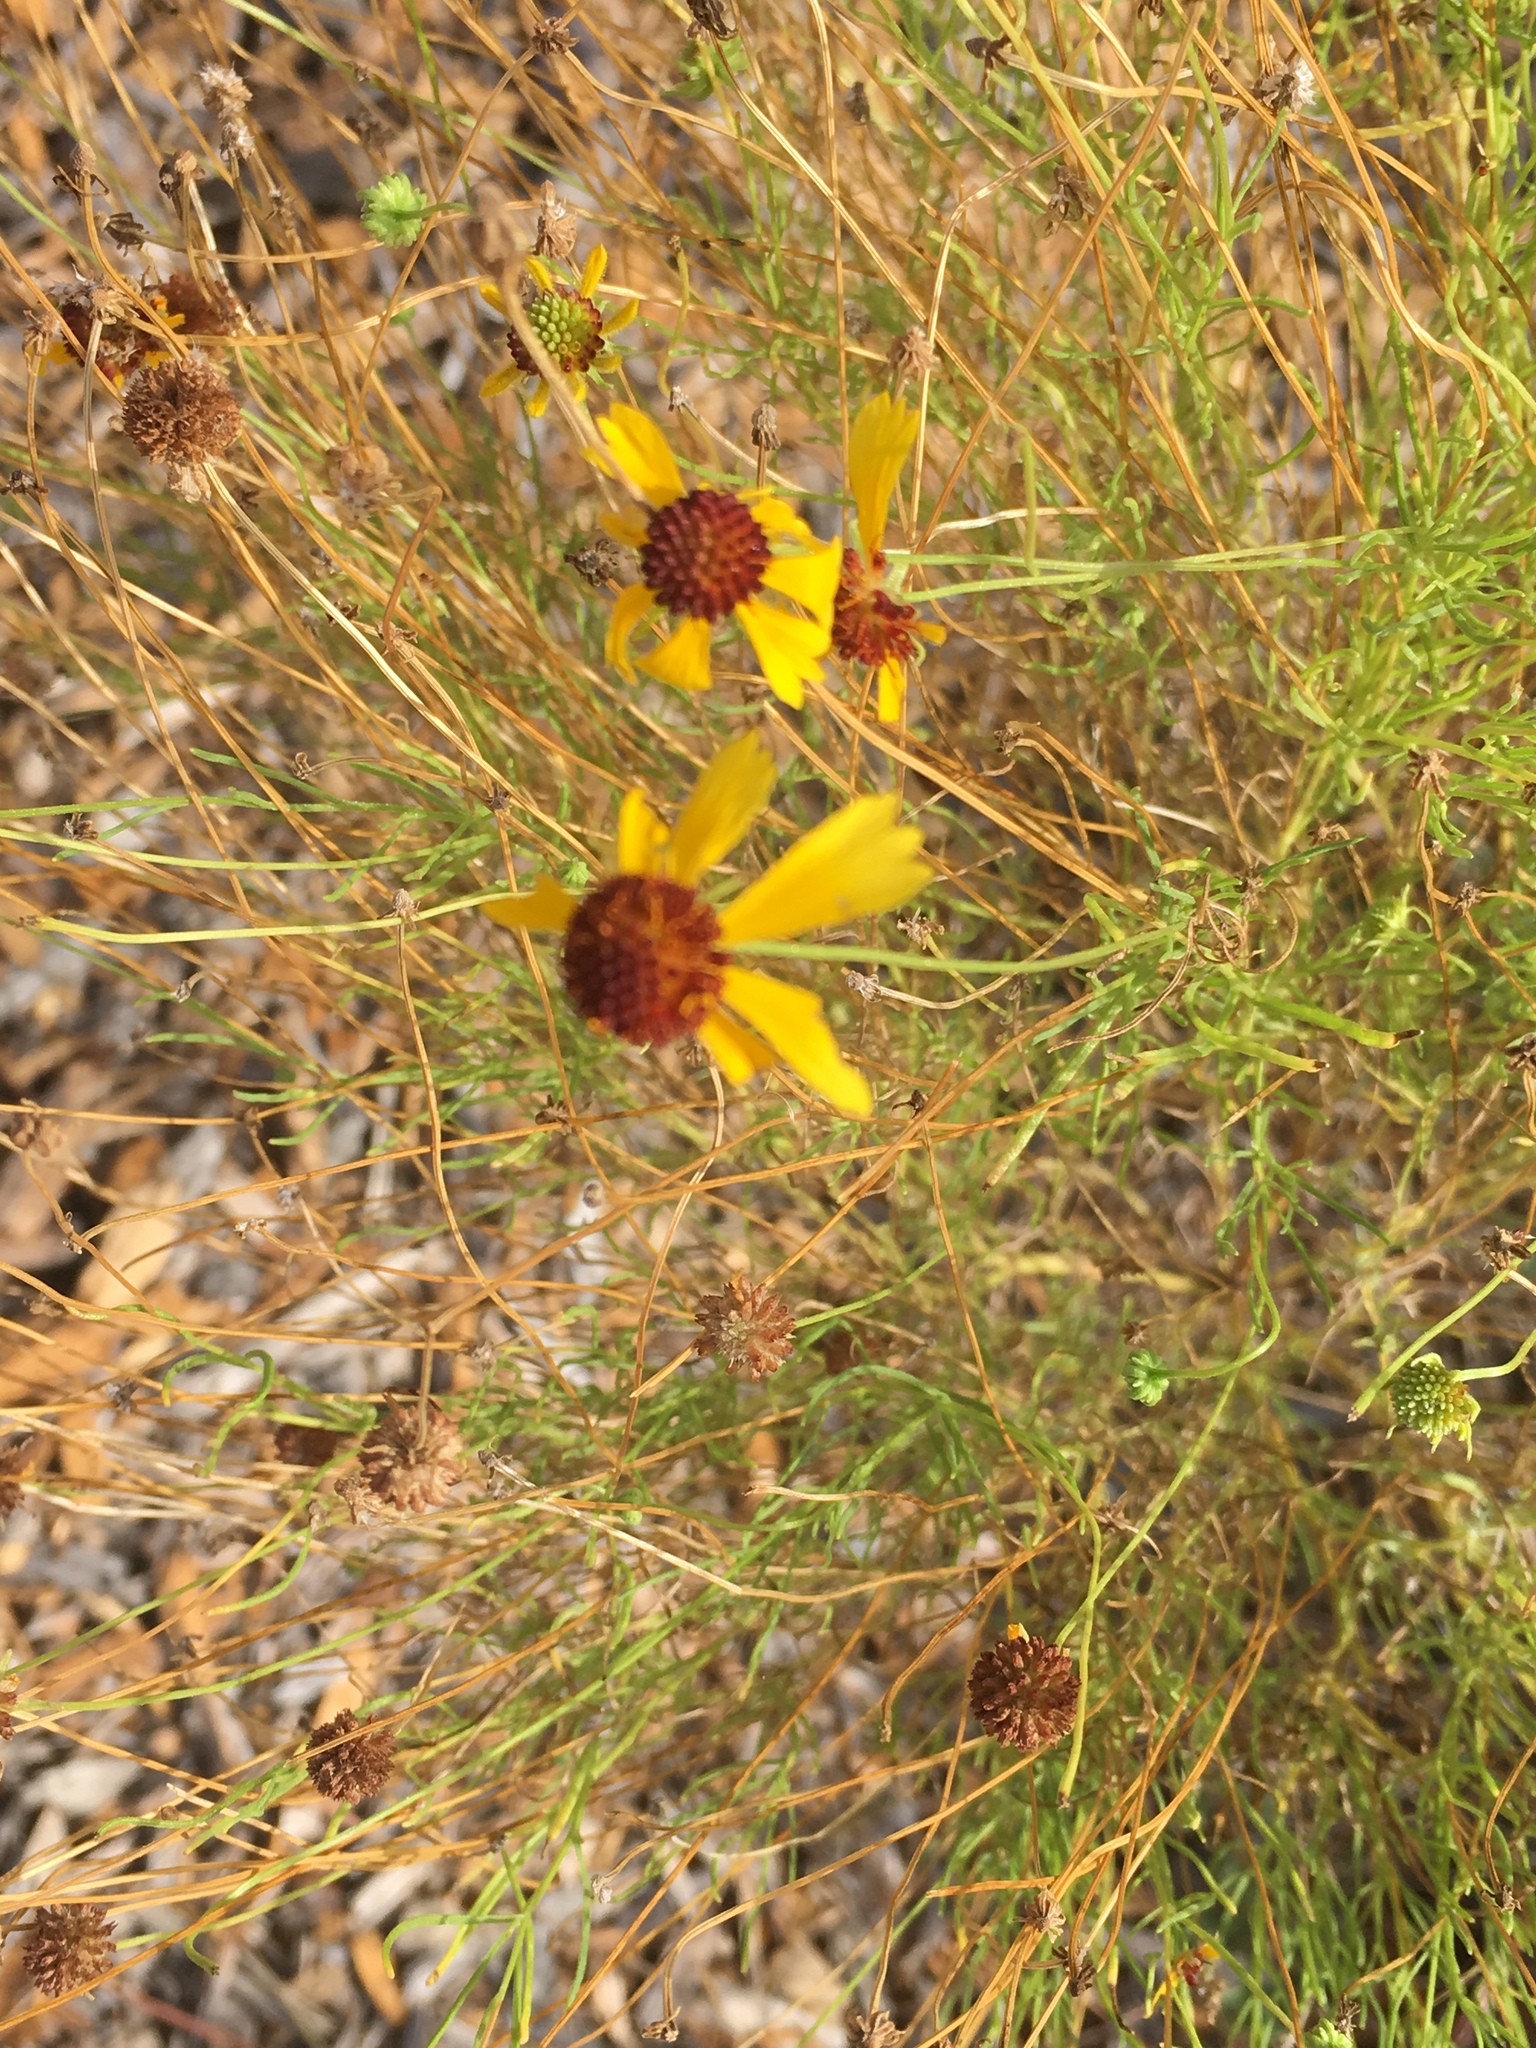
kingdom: Plantae
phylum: Tracheophyta
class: Magnoliopsida
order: Asterales
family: Asteraceae
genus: Helenium
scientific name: Helenium amarum
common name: Bitter sneezeweed
